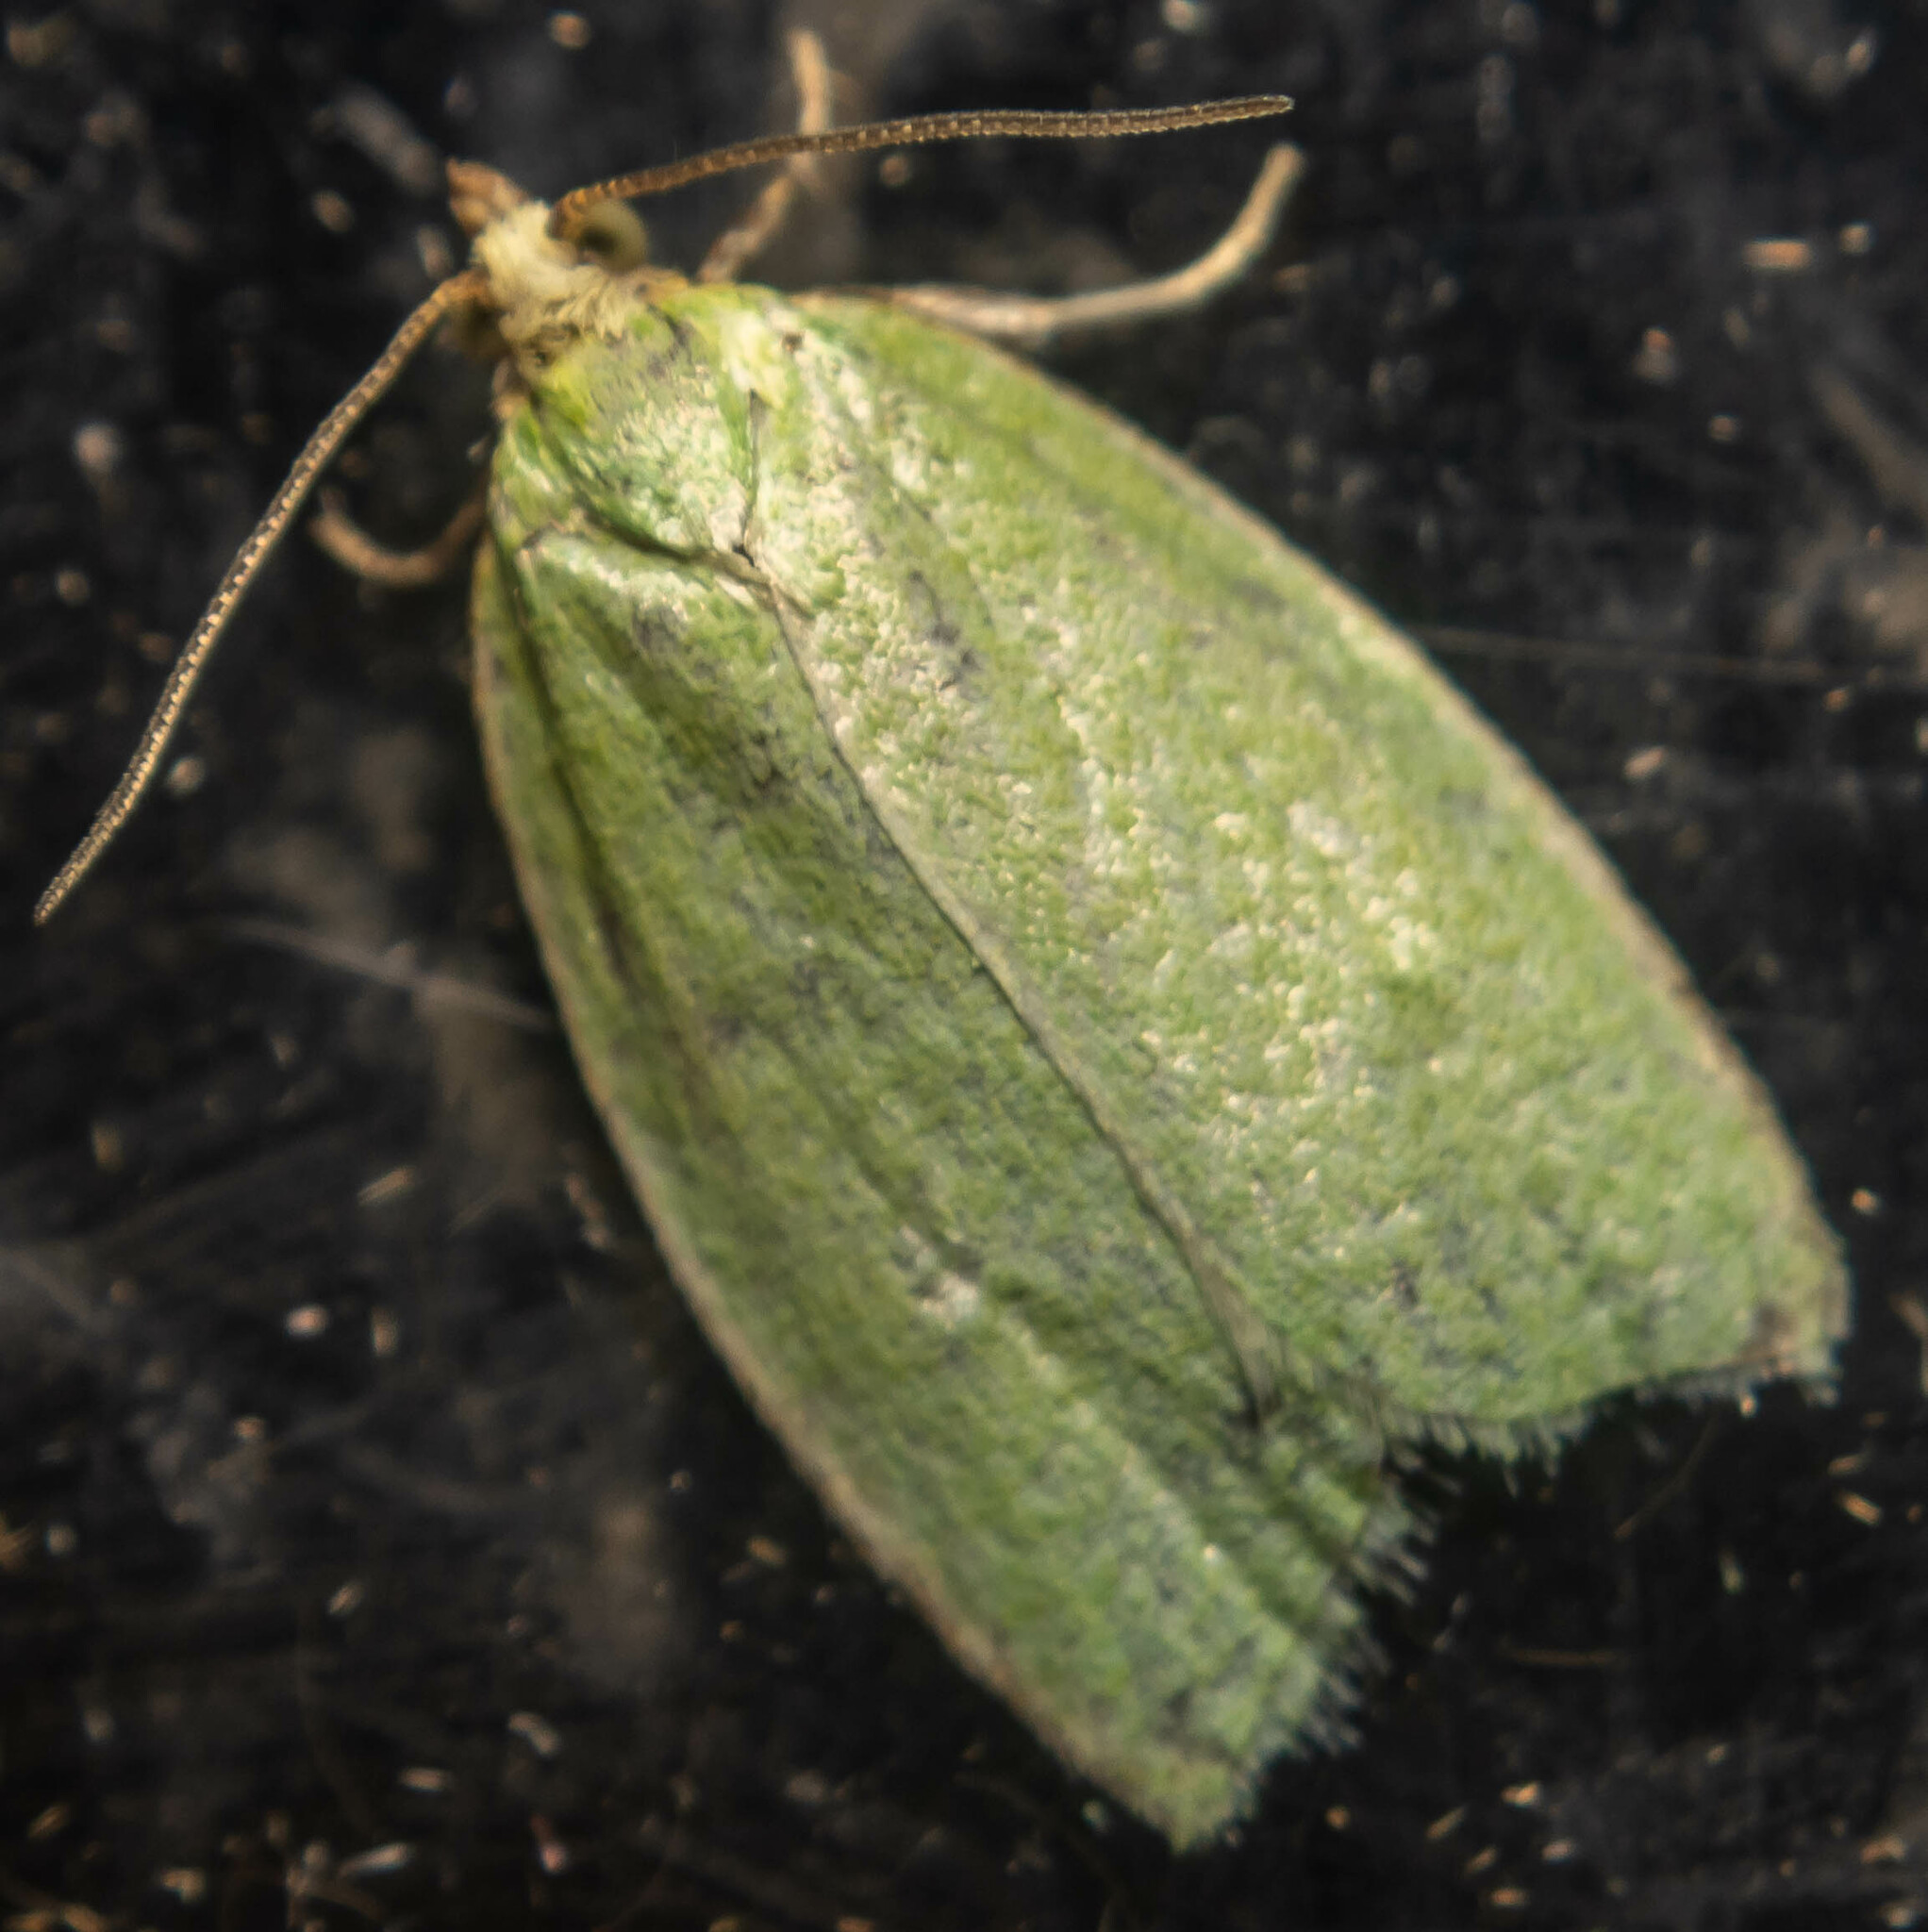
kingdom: Animalia
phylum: Arthropoda
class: Insecta
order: Lepidoptera
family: Tortricidae
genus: Tortrix
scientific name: Tortrix viridana
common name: Green oak tortrix
